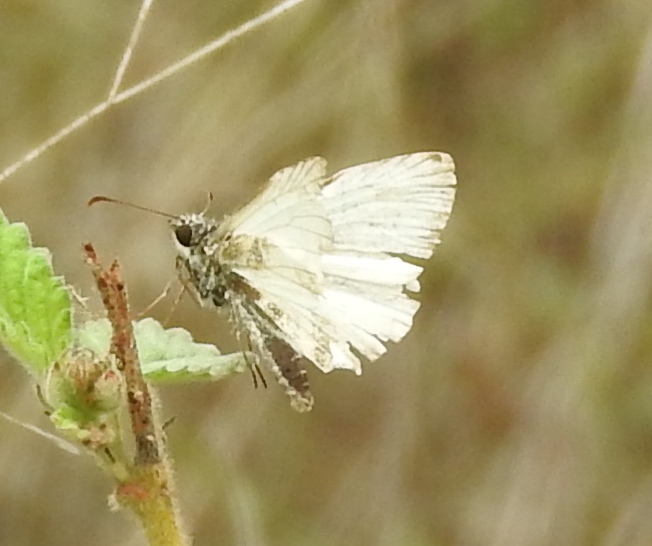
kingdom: Animalia
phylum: Arthropoda
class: Insecta
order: Lepidoptera
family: Hesperiidae
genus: Heliopetes
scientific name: Heliopetes macaira
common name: Turk's-cap white-skipper
